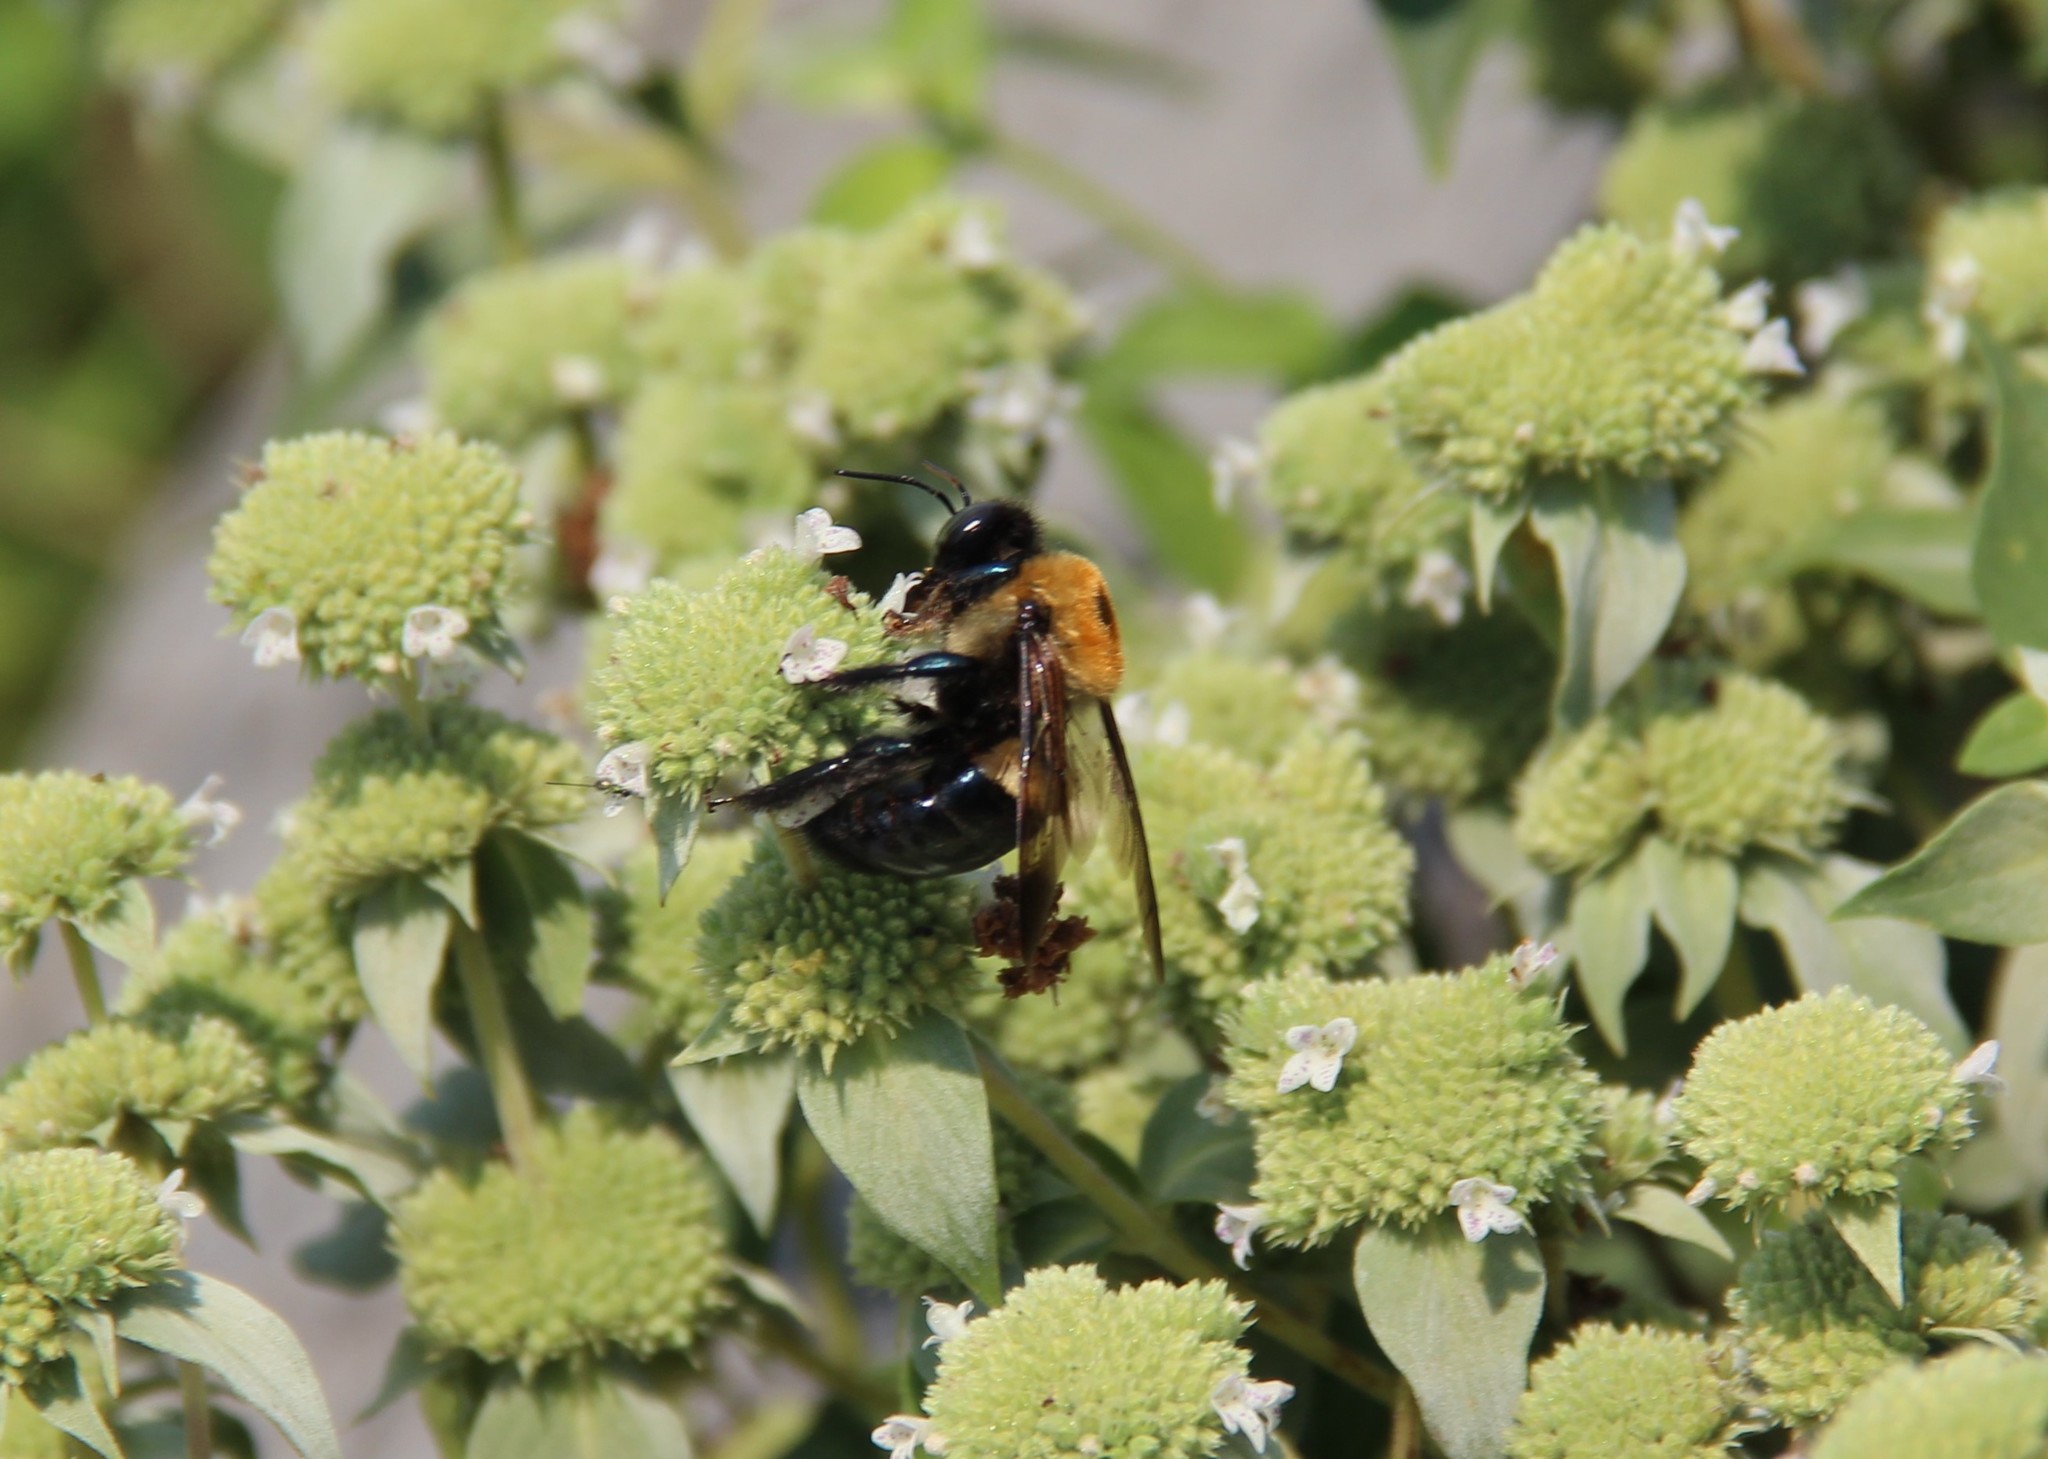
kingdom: Animalia
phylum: Arthropoda
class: Insecta
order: Hymenoptera
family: Apidae
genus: Xylocopa
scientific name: Xylocopa virginica
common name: Carpenter bee
